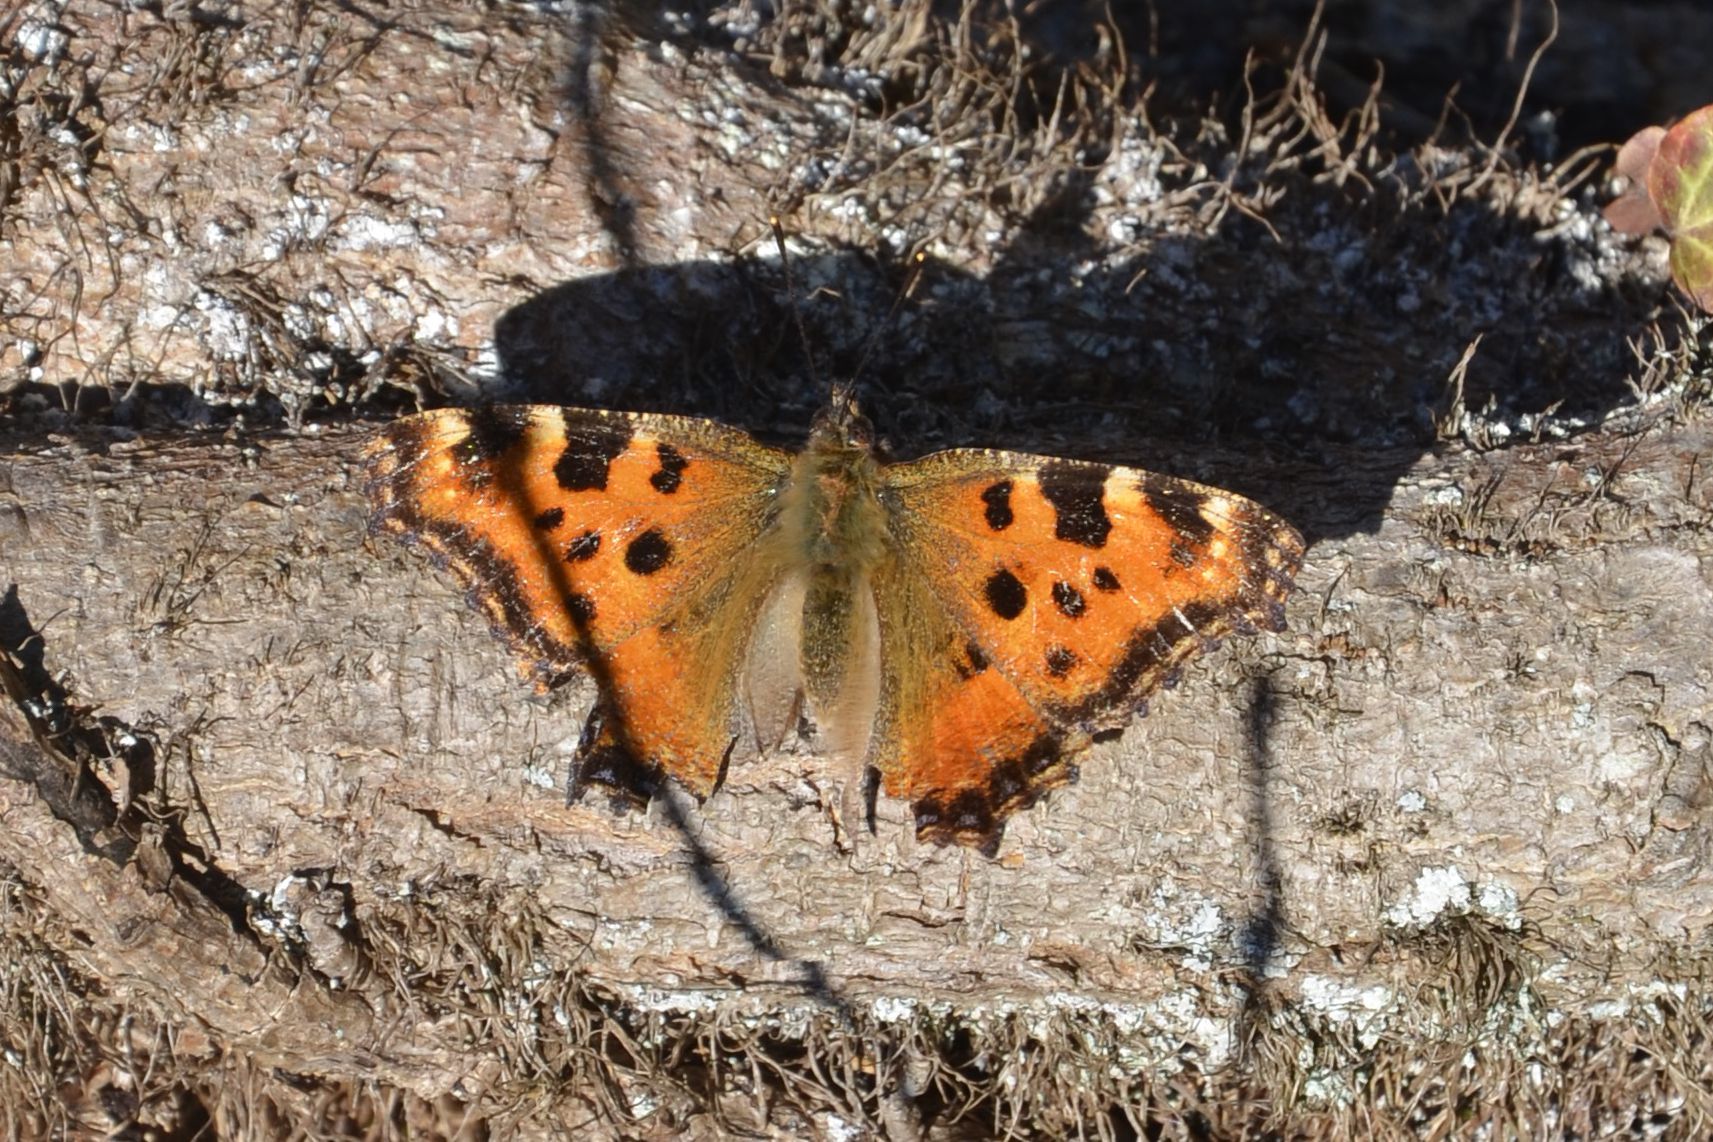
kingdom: Animalia
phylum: Arthropoda
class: Insecta
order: Lepidoptera
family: Nymphalidae
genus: Nymphalis
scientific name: Nymphalis polychloros
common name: Large tortoiseshell
